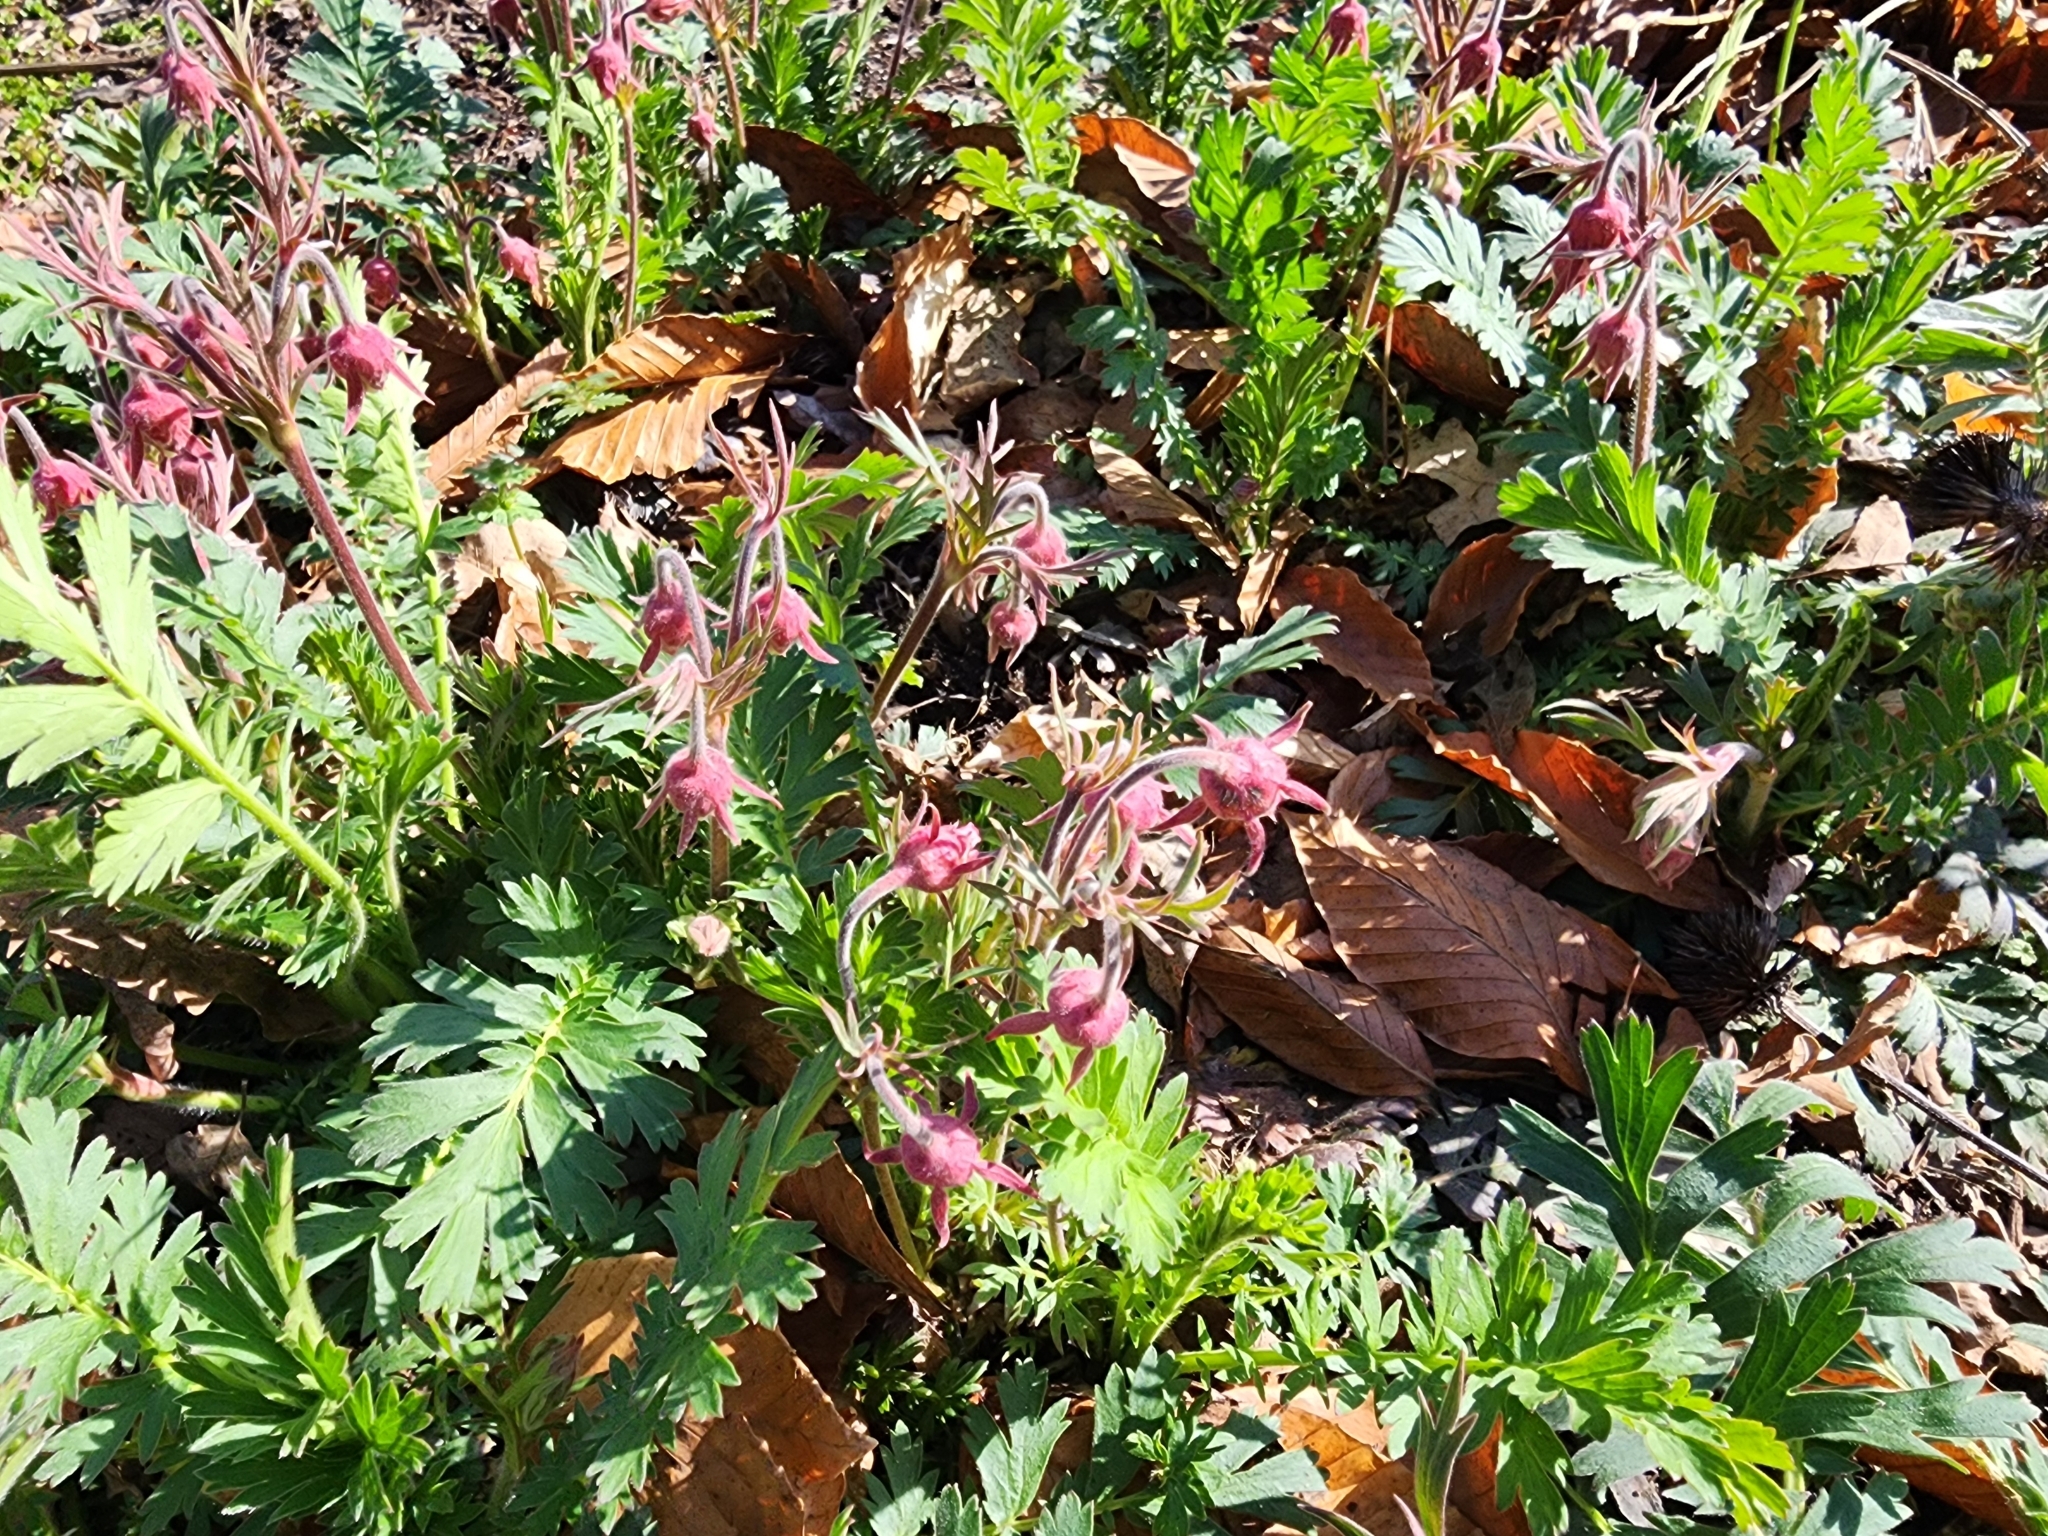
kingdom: Plantae
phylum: Tracheophyta
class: Magnoliopsida
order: Rosales
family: Rosaceae
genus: Geum
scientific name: Geum triflorum
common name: Old man's whiskers
